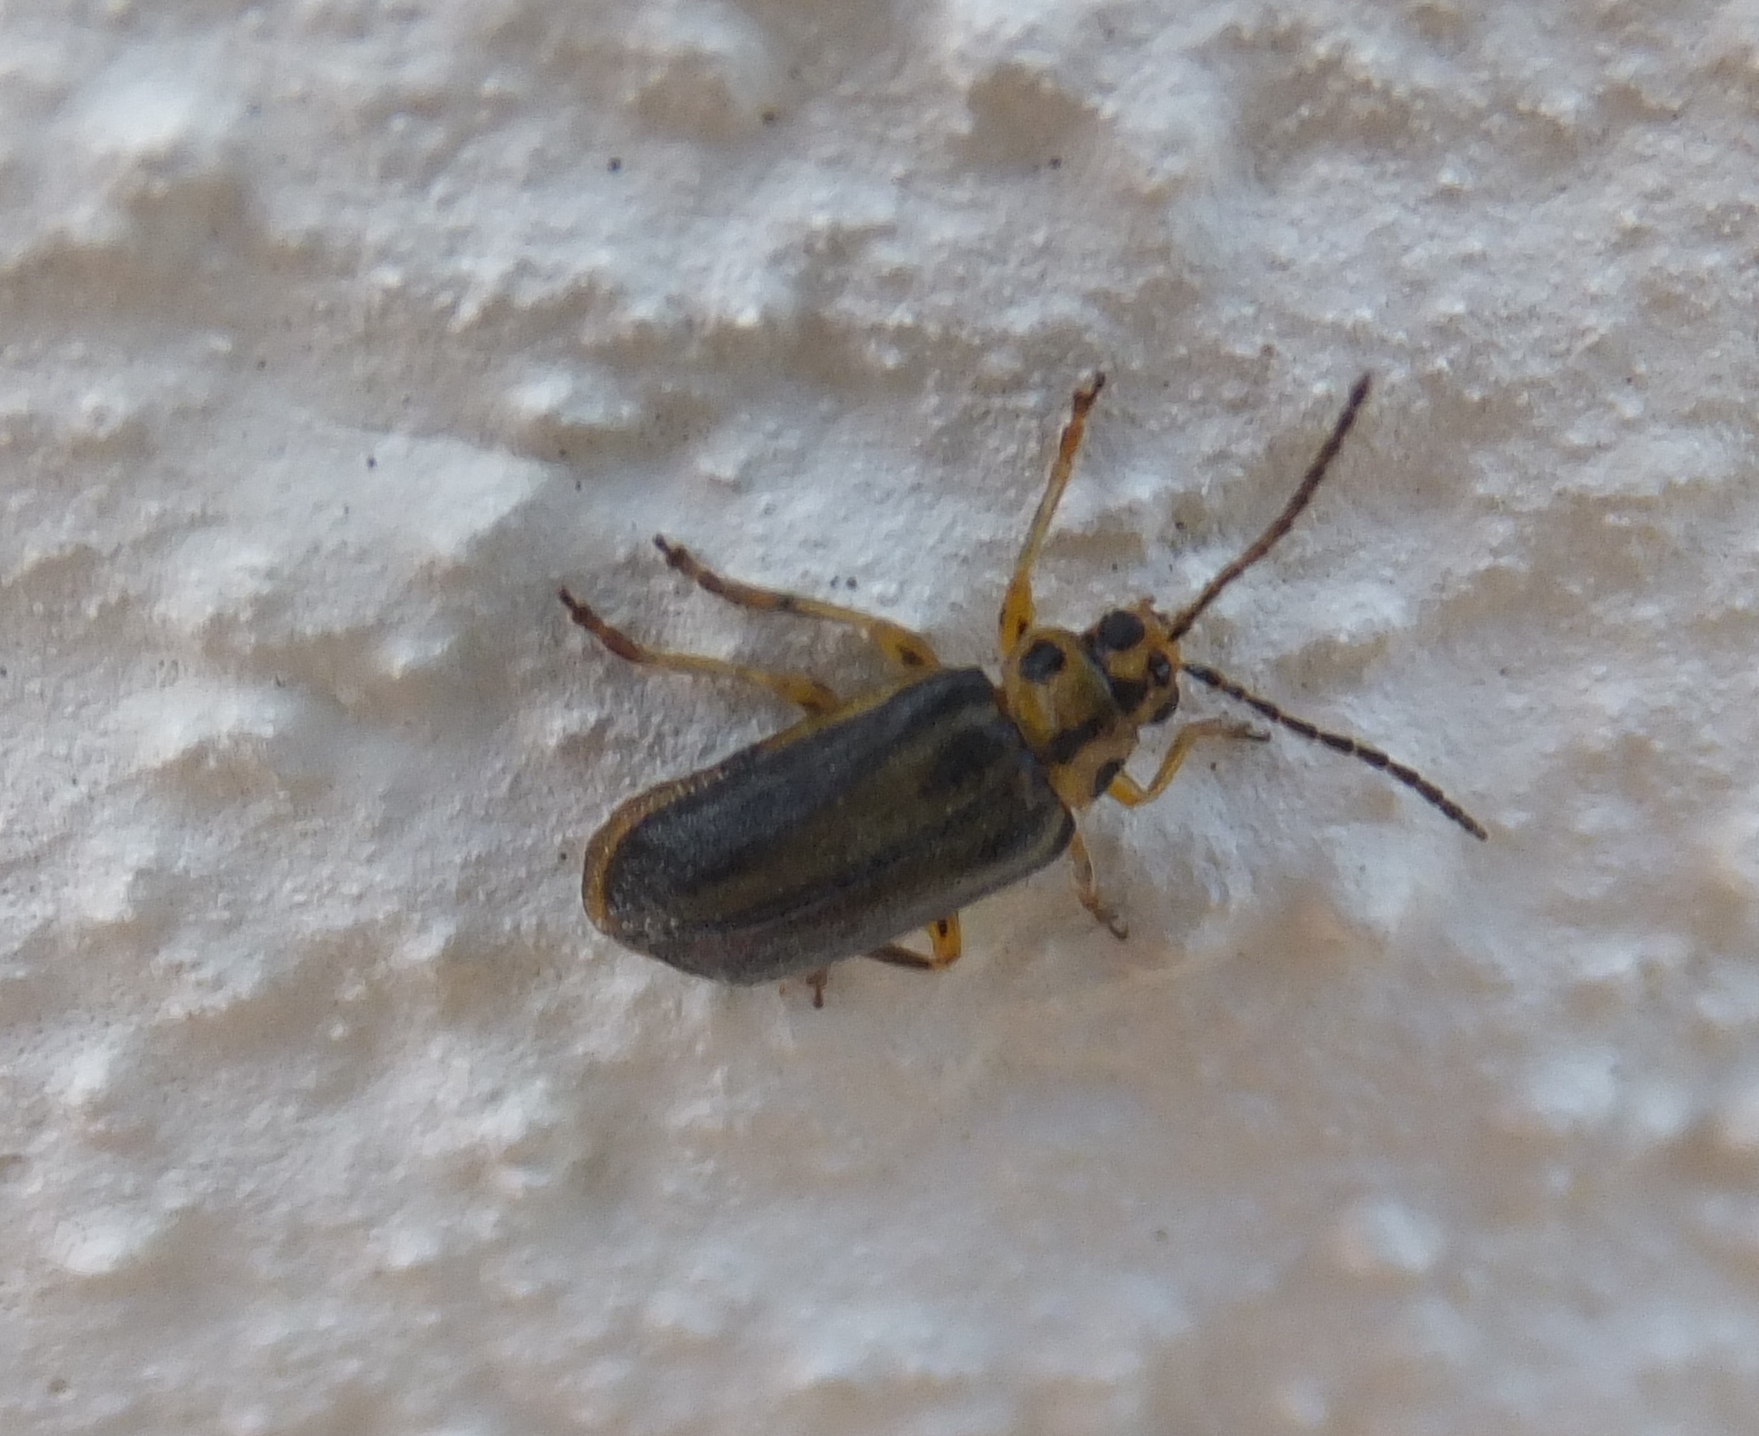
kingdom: Animalia
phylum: Arthropoda
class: Insecta
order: Coleoptera
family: Chrysomelidae
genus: Xanthogaleruca
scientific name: Xanthogaleruca luteola
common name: Elm leaf beetle
